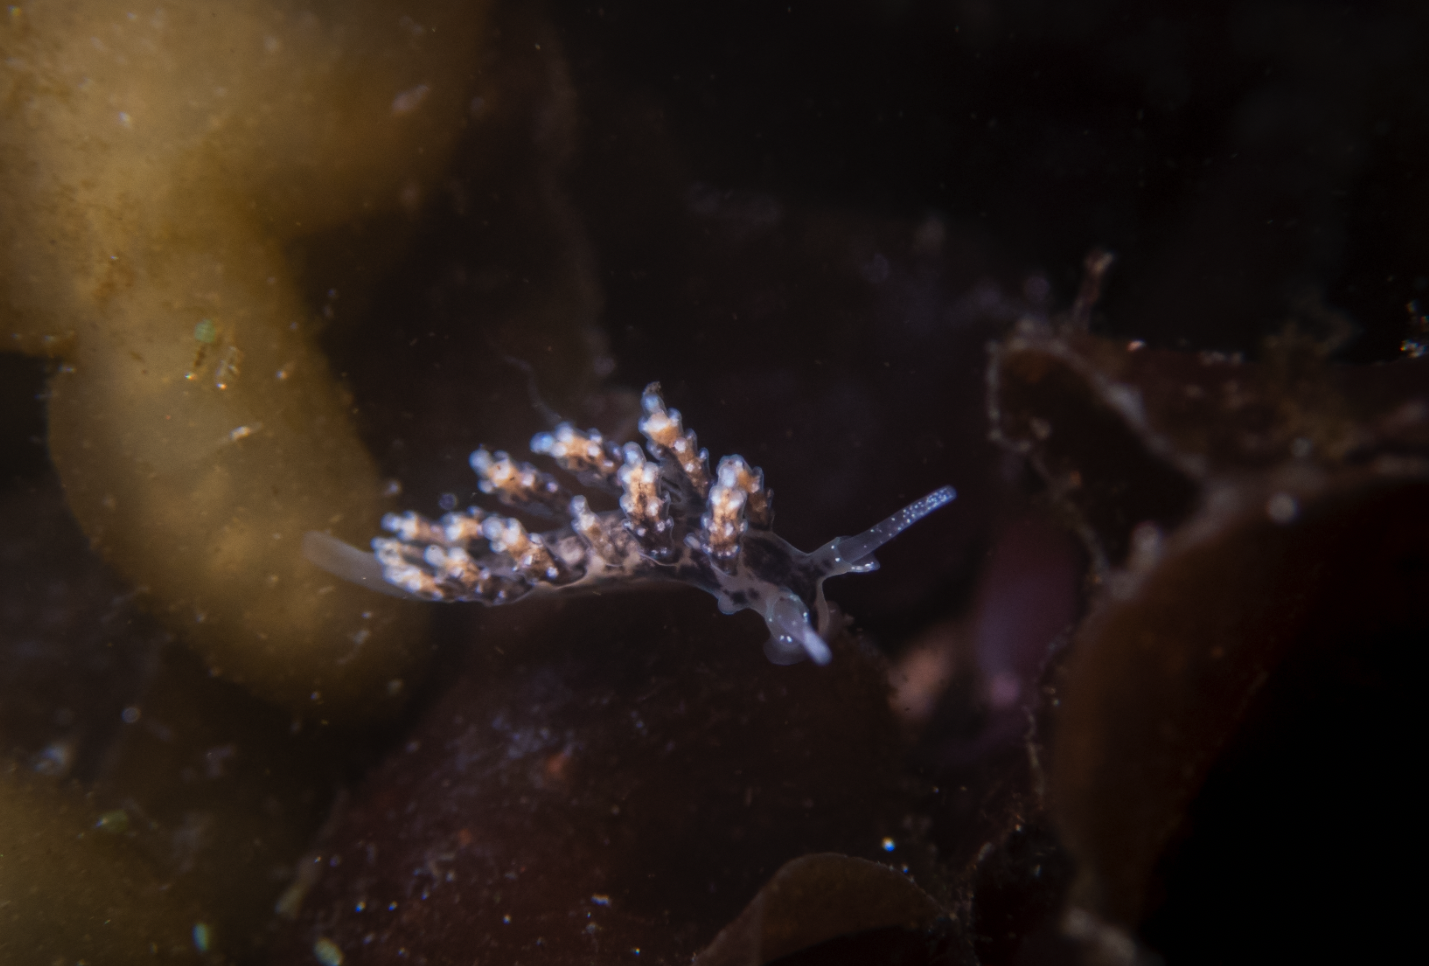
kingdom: Animalia
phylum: Mollusca
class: Gastropoda
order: Nudibranchia
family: Dotidae
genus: Doto
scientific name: Doto kya
